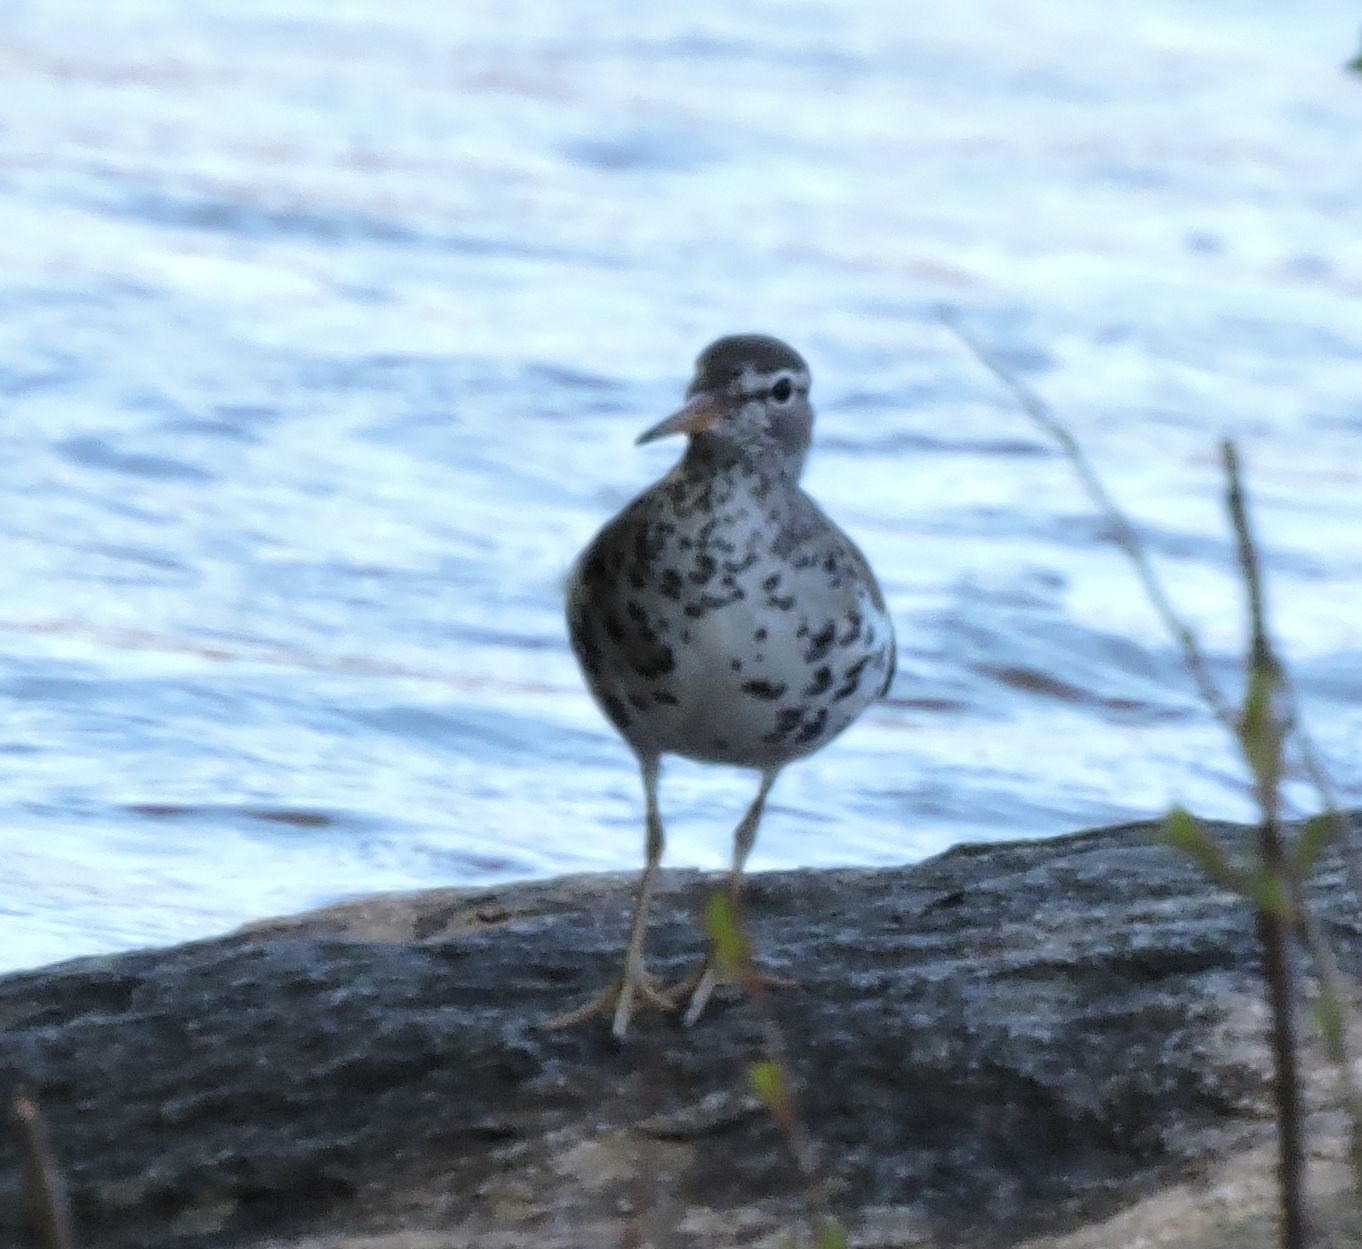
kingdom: Animalia
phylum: Chordata
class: Aves
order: Charadriiformes
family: Scolopacidae
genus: Actitis
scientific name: Actitis macularius
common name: Spotted sandpiper
